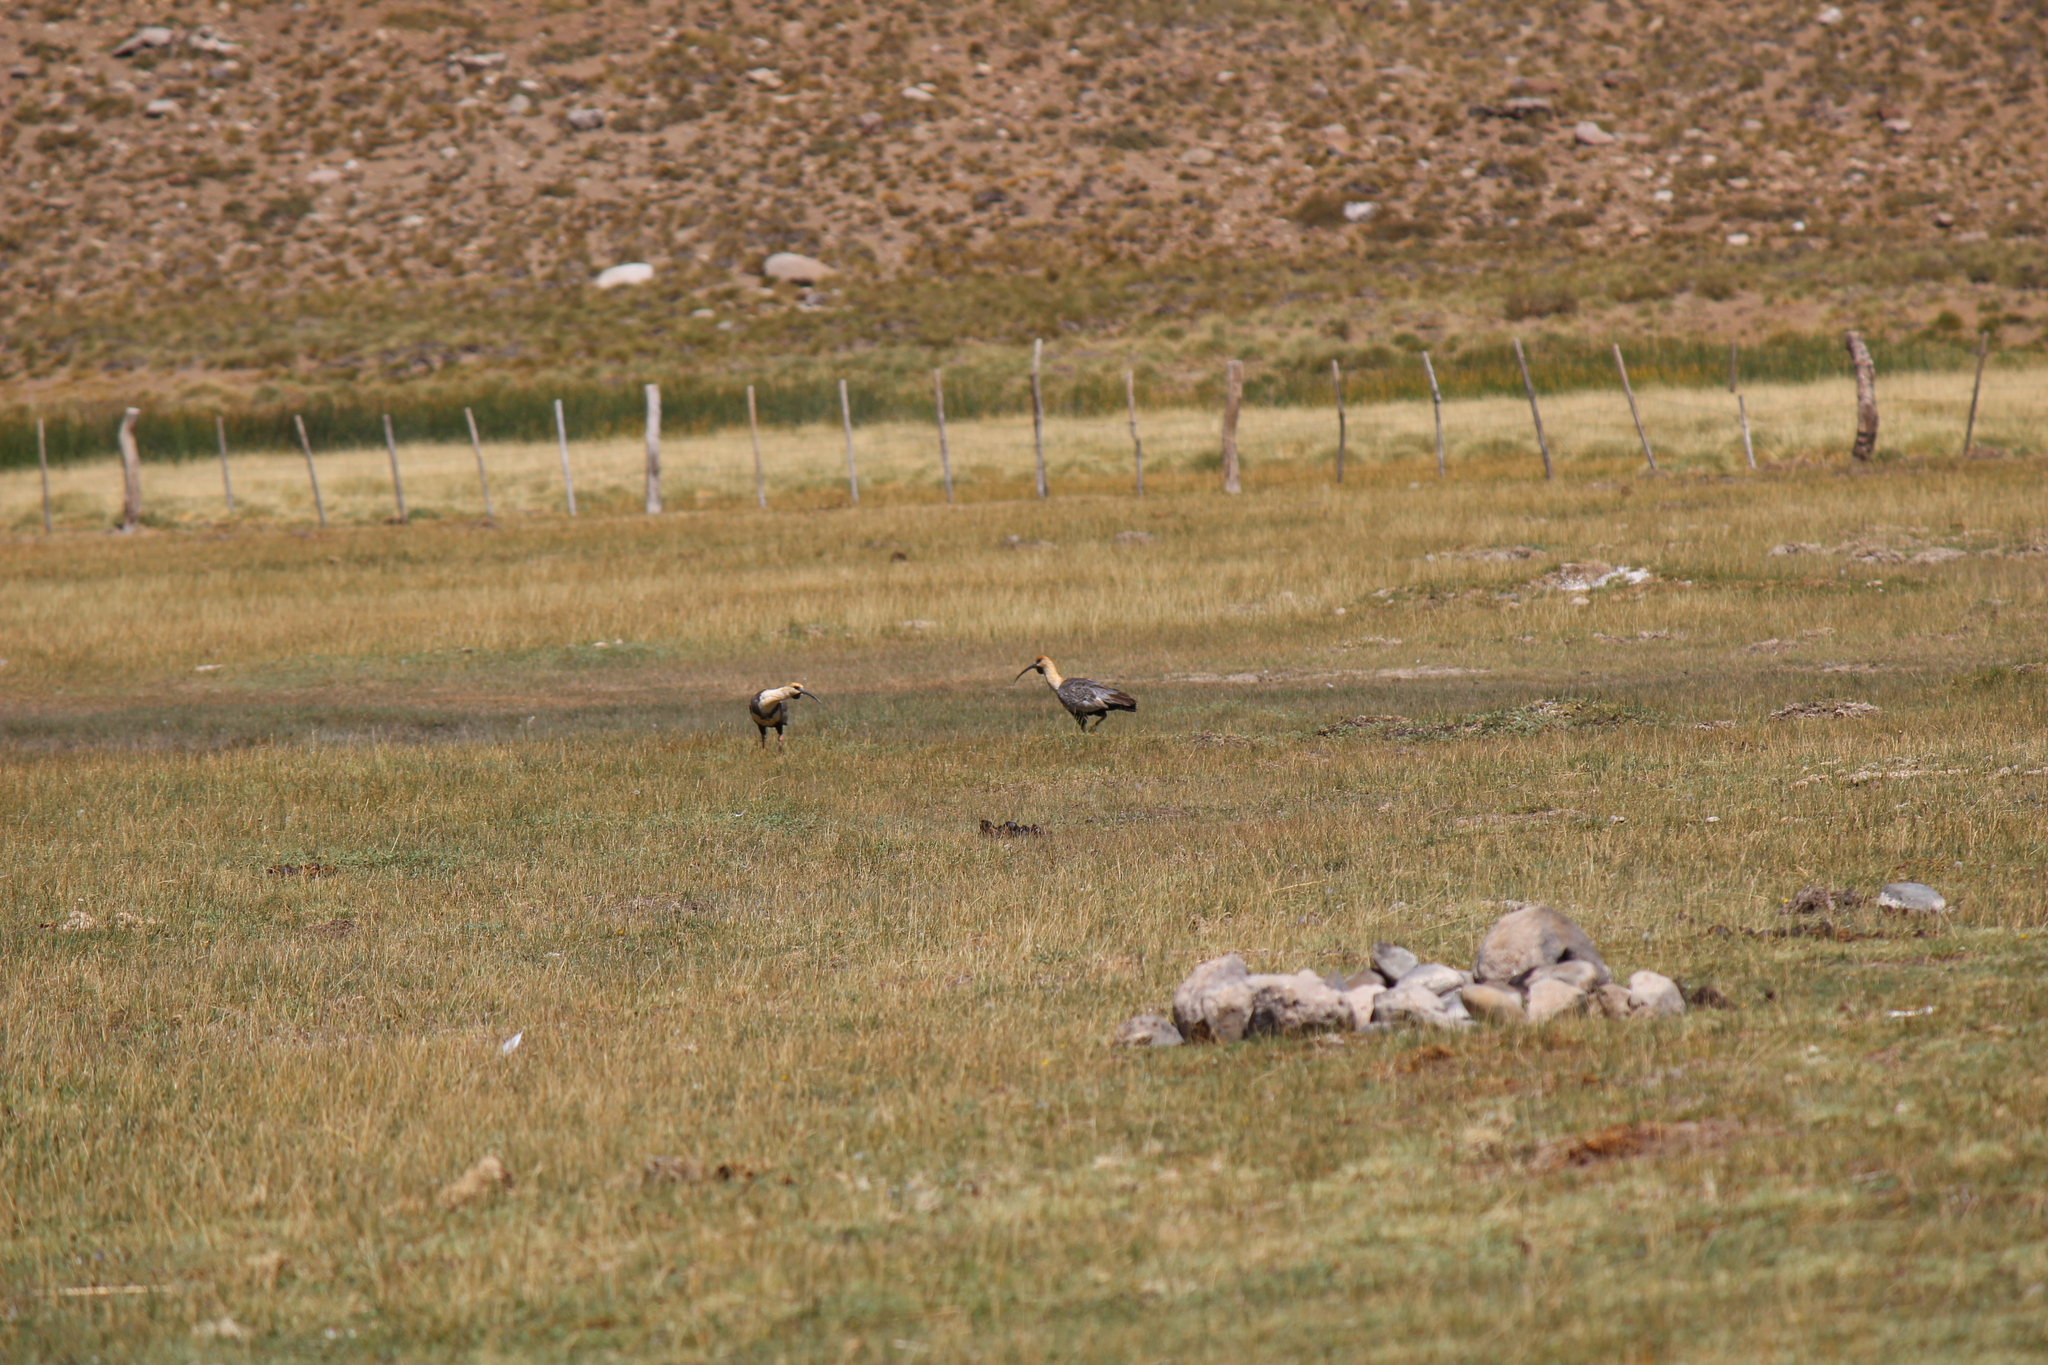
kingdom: Animalia
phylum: Chordata
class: Aves
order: Pelecaniformes
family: Threskiornithidae
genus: Theristicus
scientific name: Theristicus melanopis
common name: Black-faced ibis
